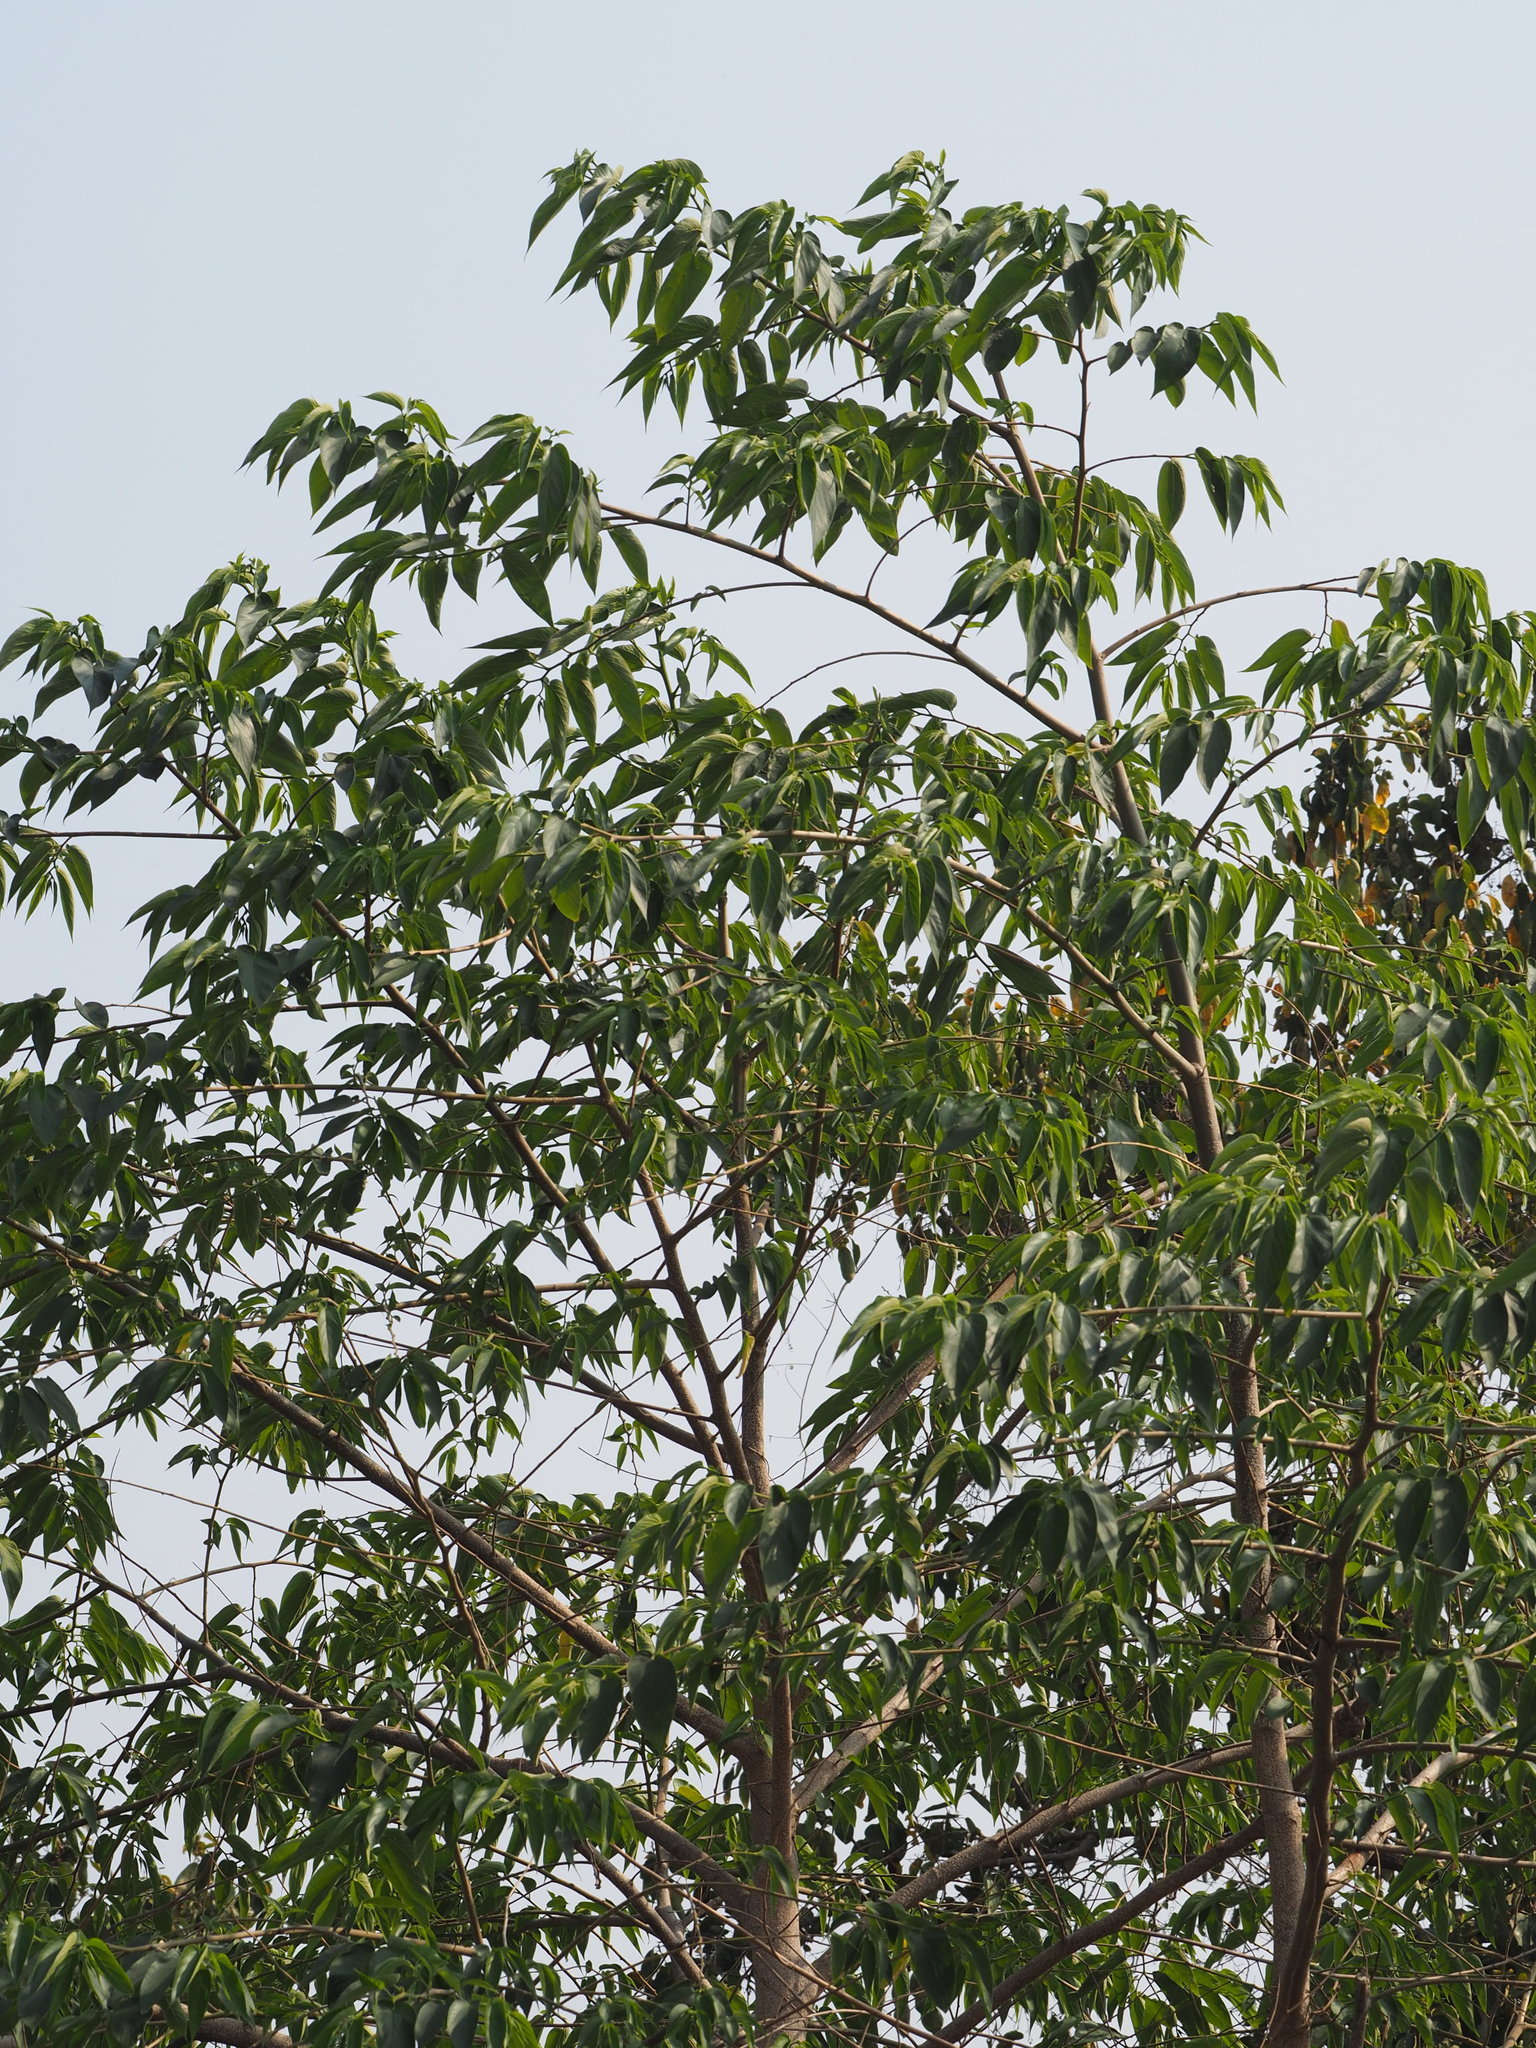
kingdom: Plantae
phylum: Tracheophyta
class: Magnoliopsida
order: Rosales
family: Cannabaceae
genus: Trema
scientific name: Trema orientale
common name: Indian charcoal tree
